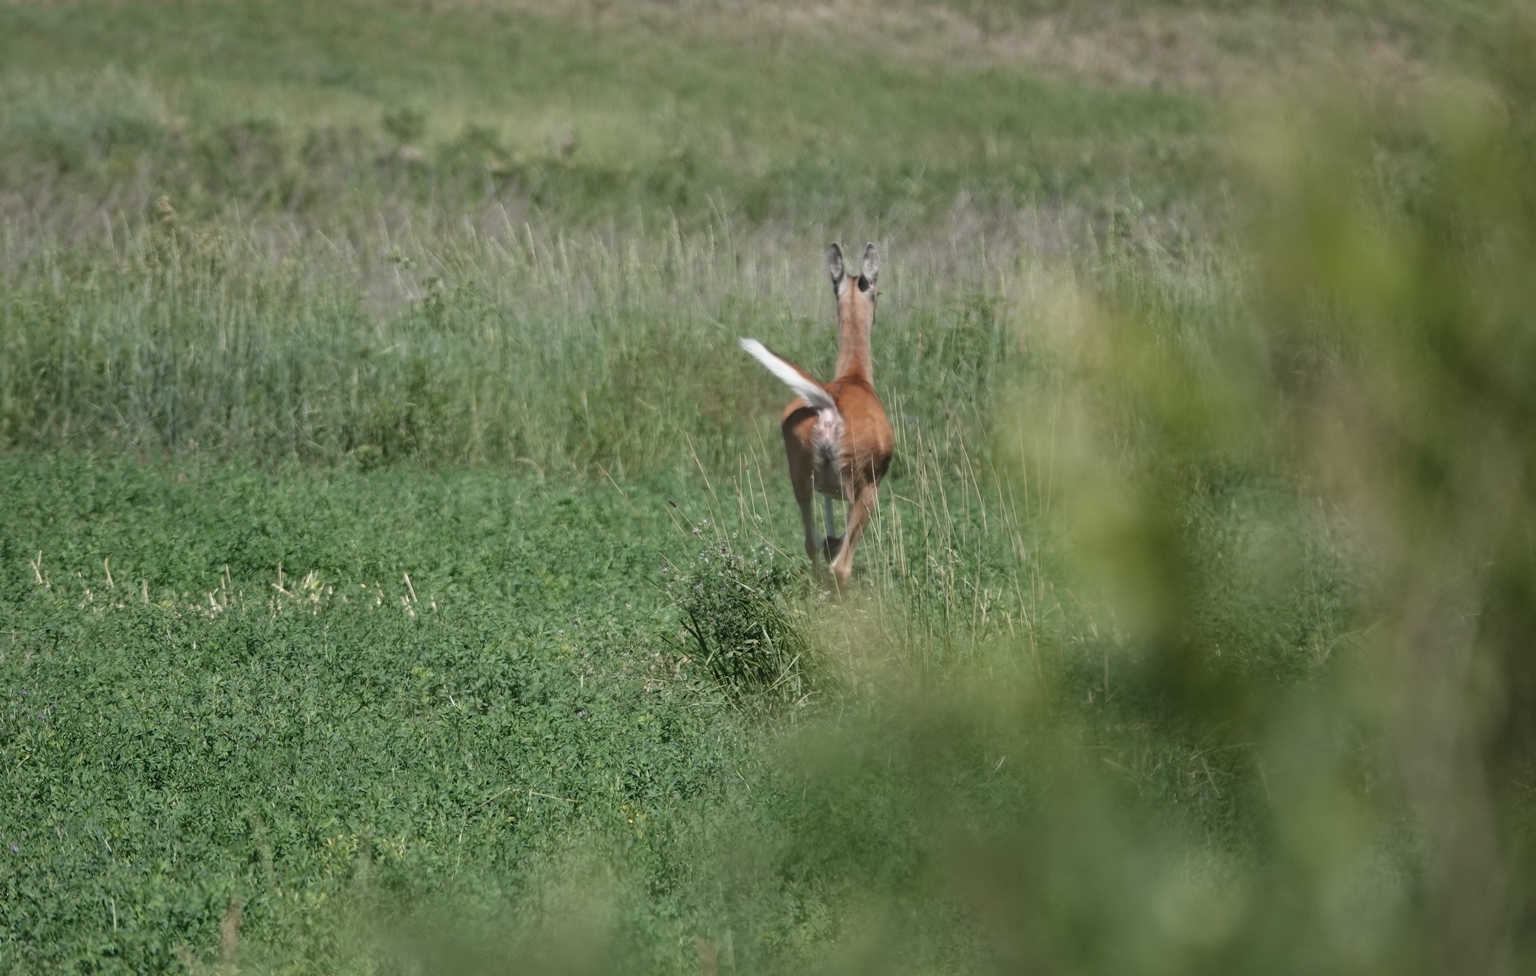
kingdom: Animalia
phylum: Chordata
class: Mammalia
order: Artiodactyla
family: Cervidae
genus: Odocoileus
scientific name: Odocoileus virginianus
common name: White-tailed deer
